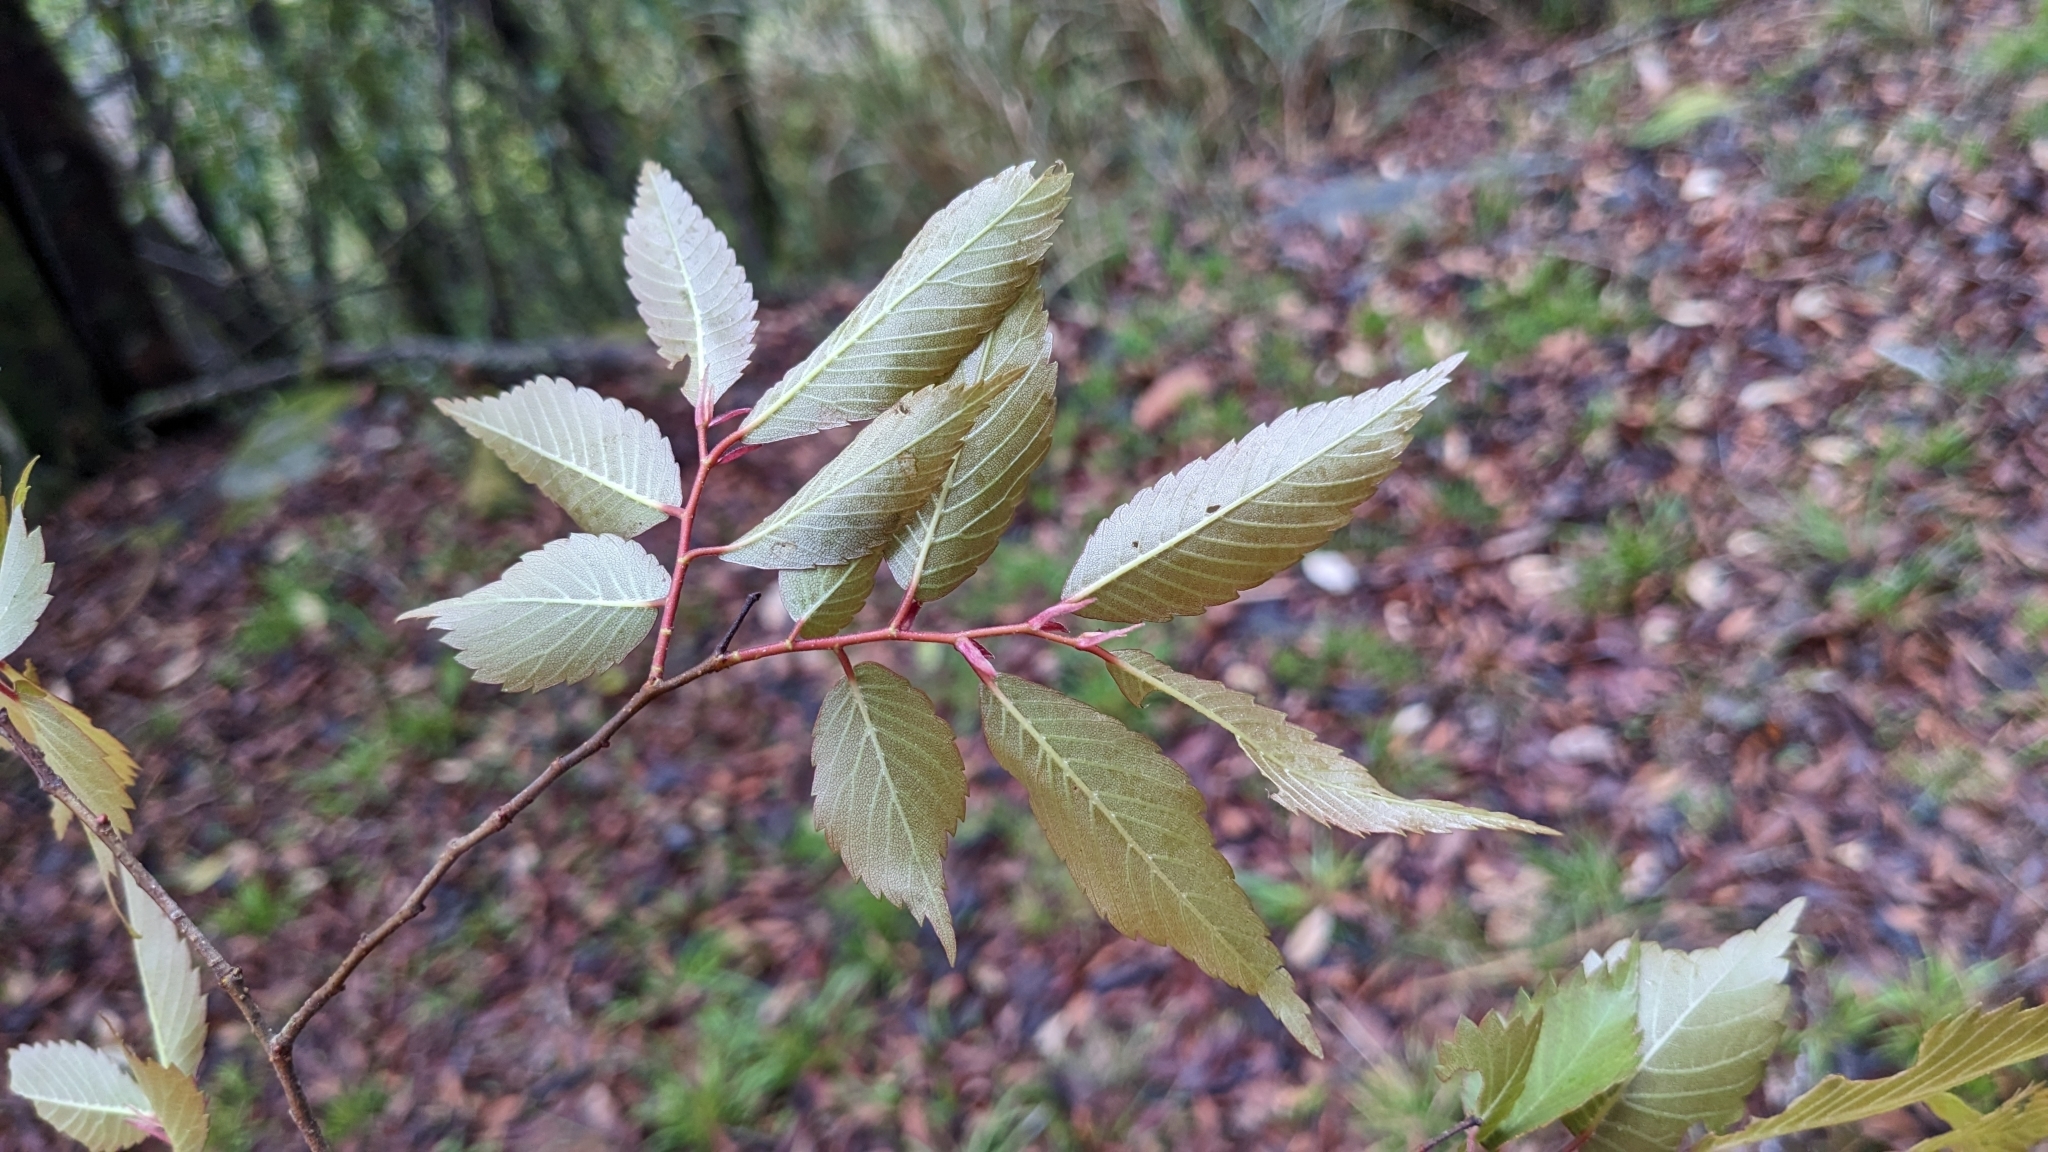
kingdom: Plantae
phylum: Tracheophyta
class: Magnoliopsida
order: Rosales
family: Ulmaceae
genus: Zelkova
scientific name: Zelkova serrata
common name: Japanese zelkova
